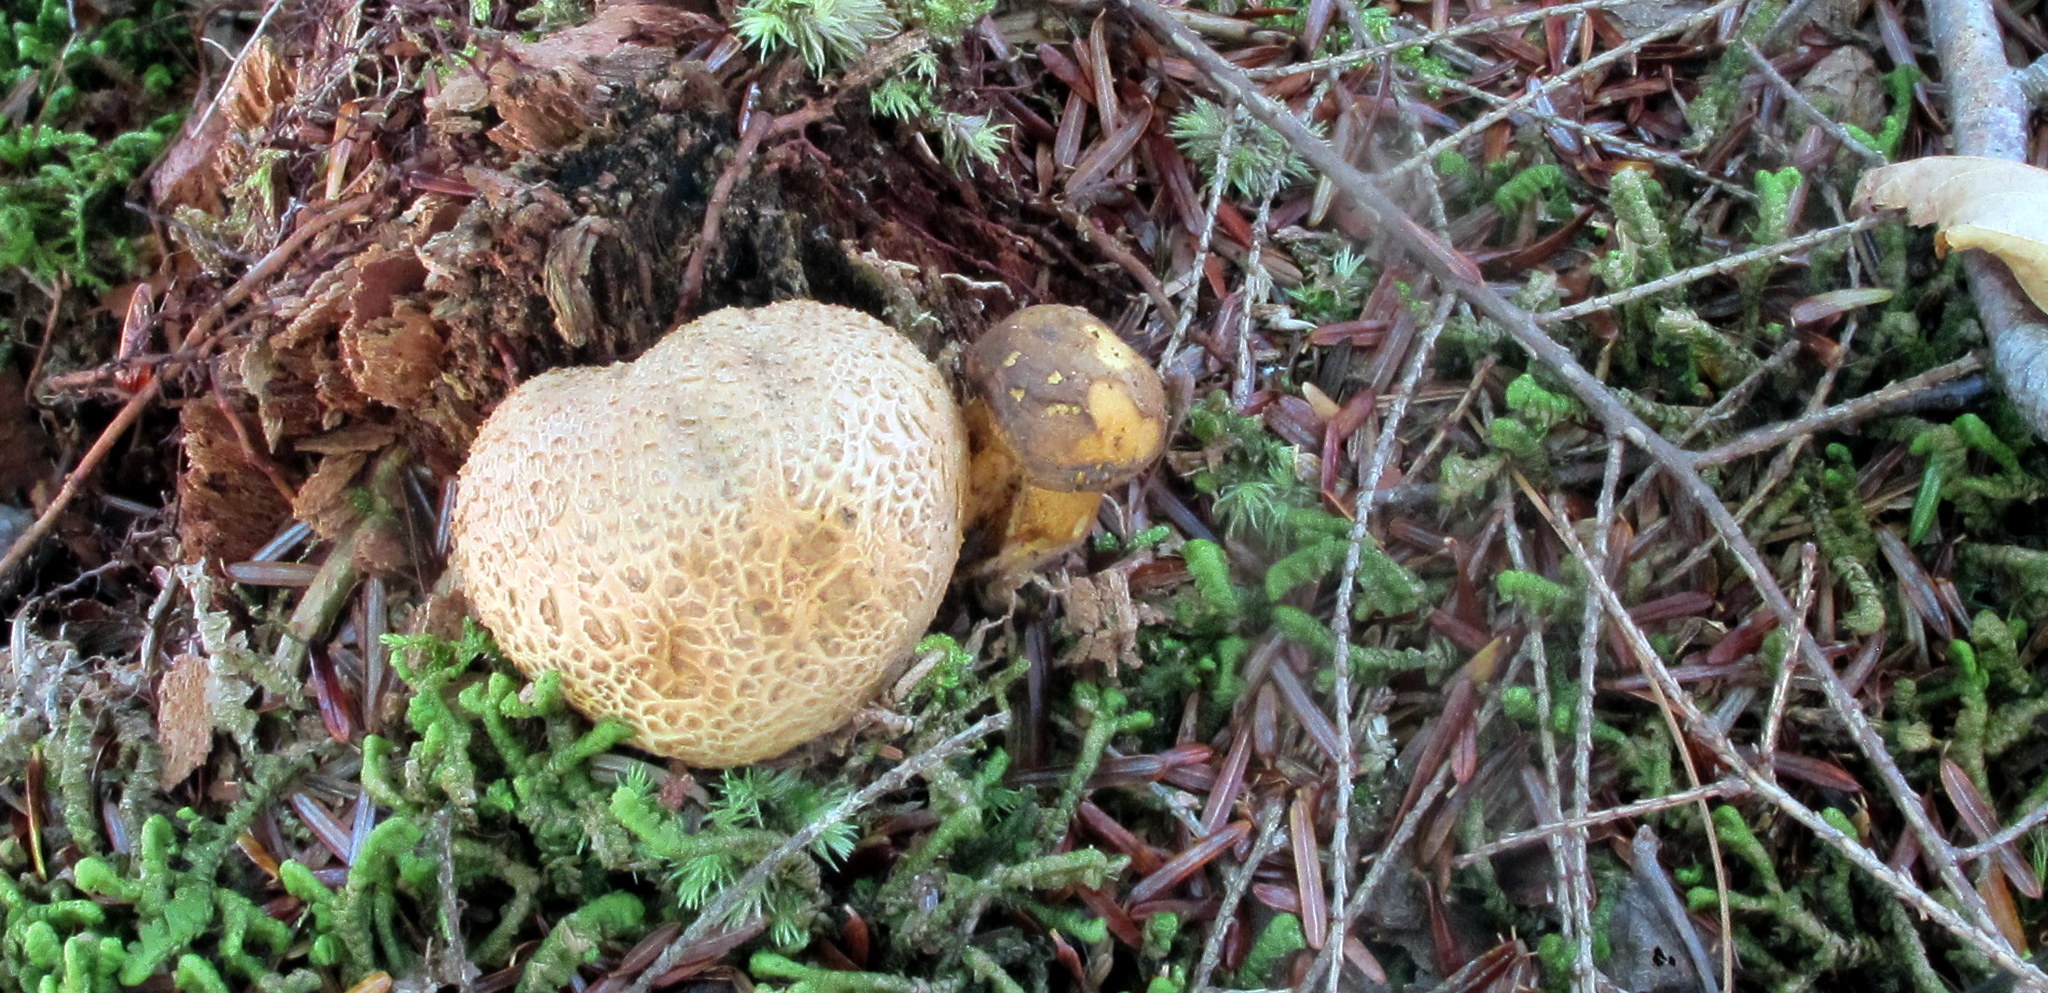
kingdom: Fungi
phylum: Basidiomycota
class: Agaricomycetes
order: Boletales
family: Boletaceae
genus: Pseudoboletus
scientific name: Pseudoboletus parasiticus
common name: Parasitic bolete
